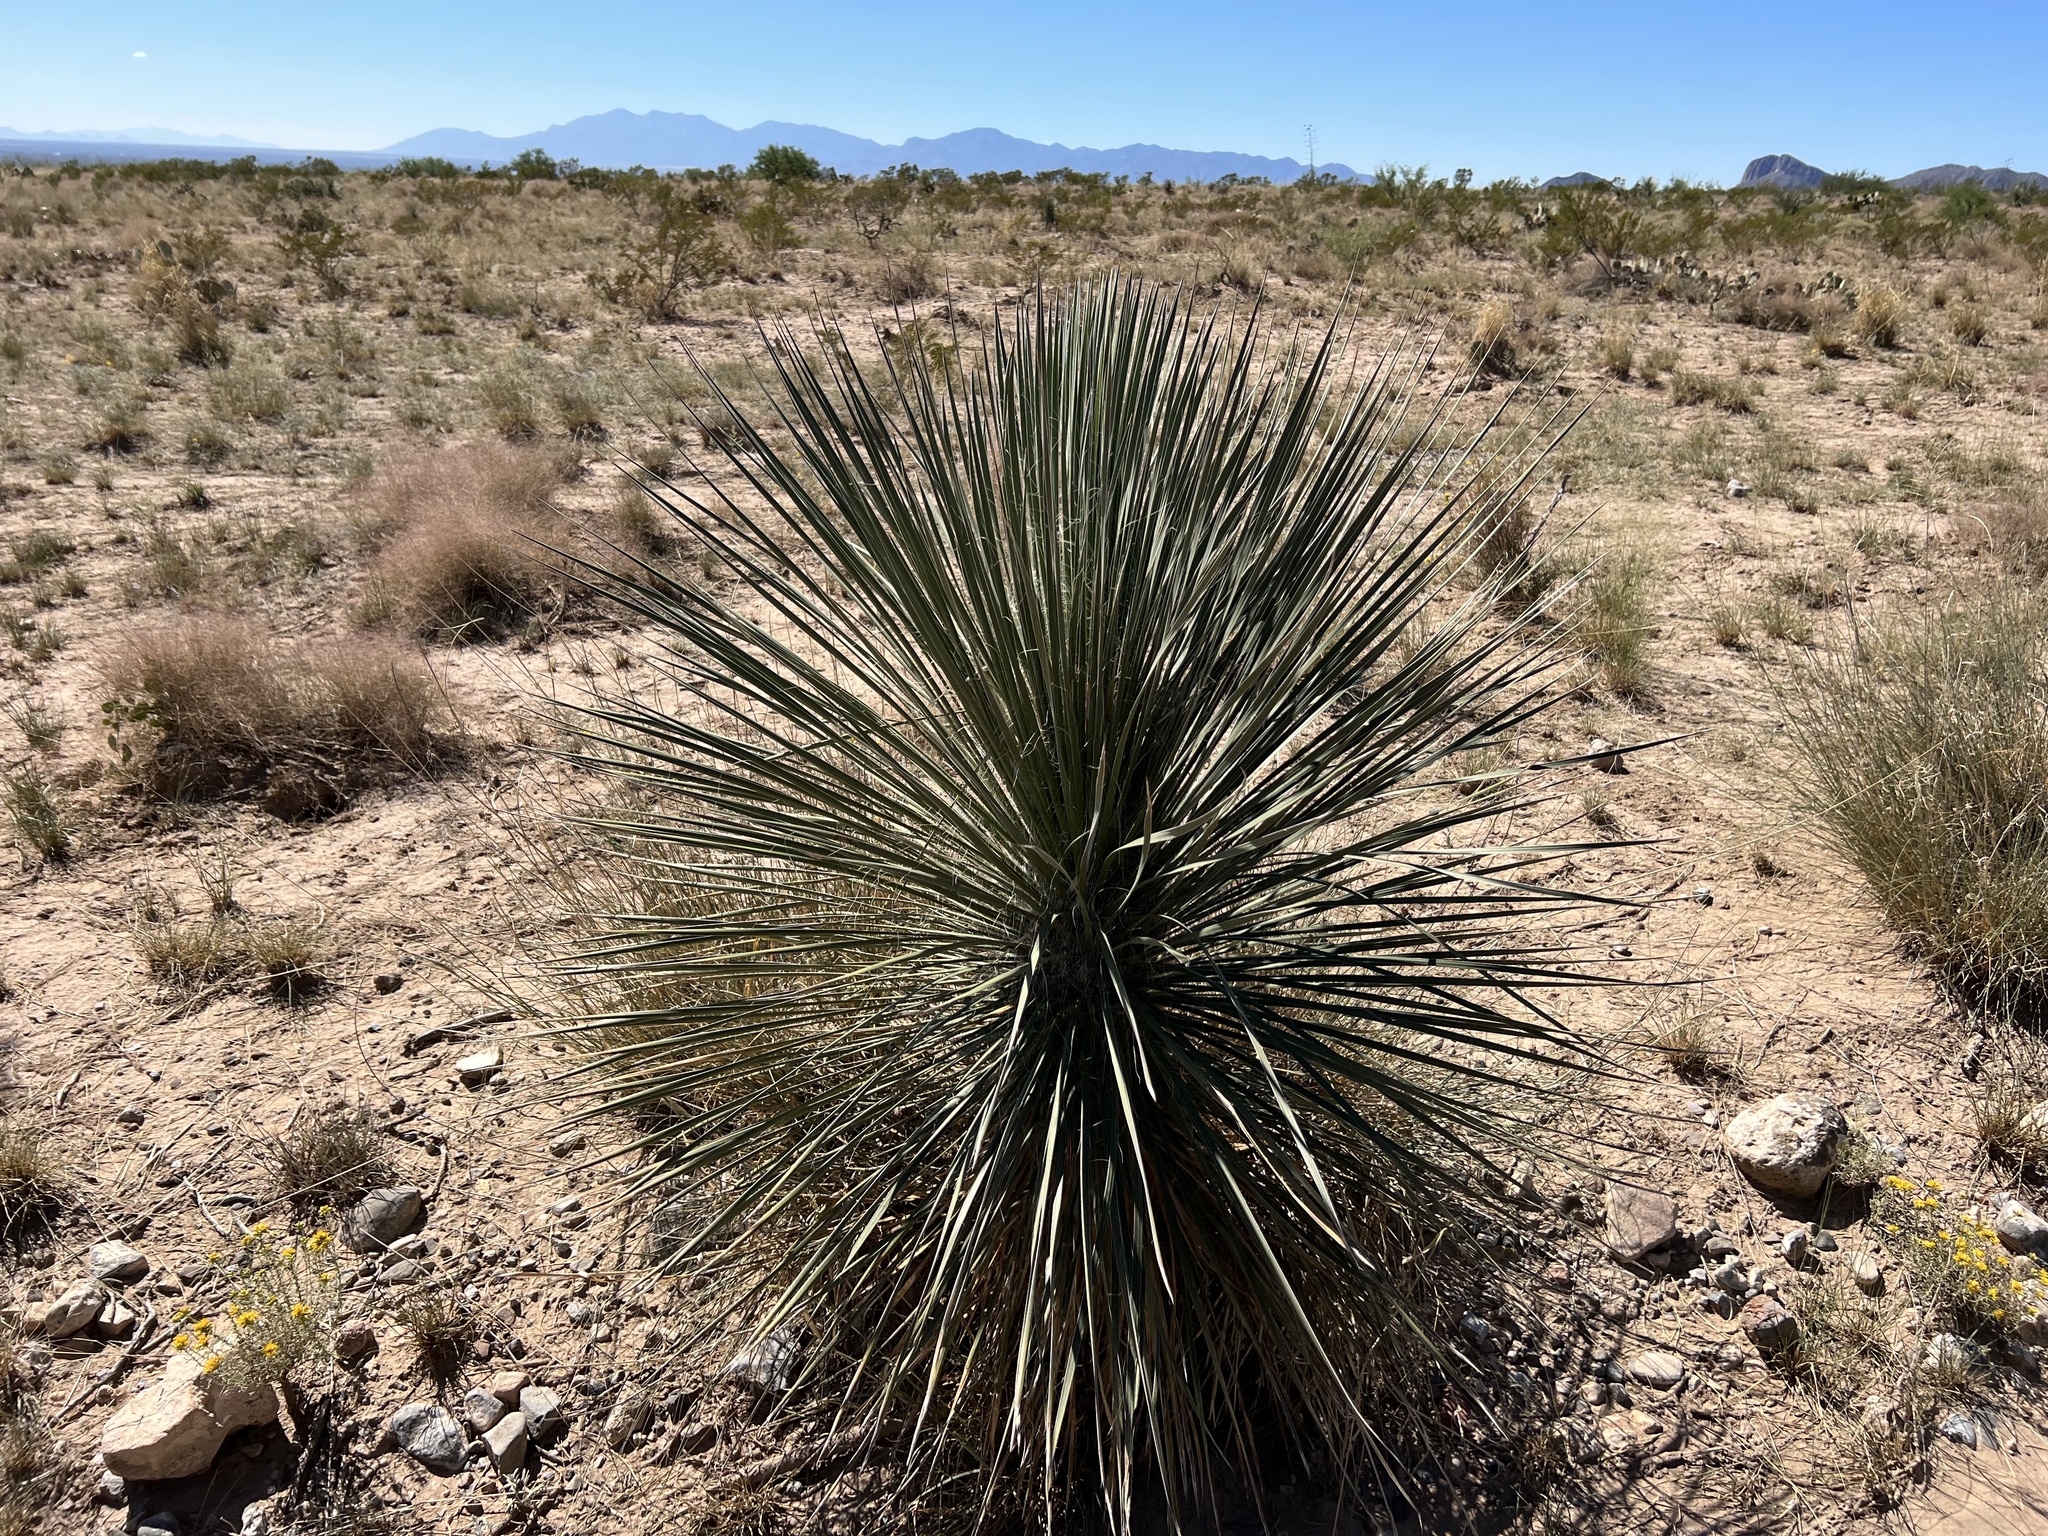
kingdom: Plantae
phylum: Tracheophyta
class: Liliopsida
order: Asparagales
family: Asparagaceae
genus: Yucca
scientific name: Yucca elata
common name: Palmella
